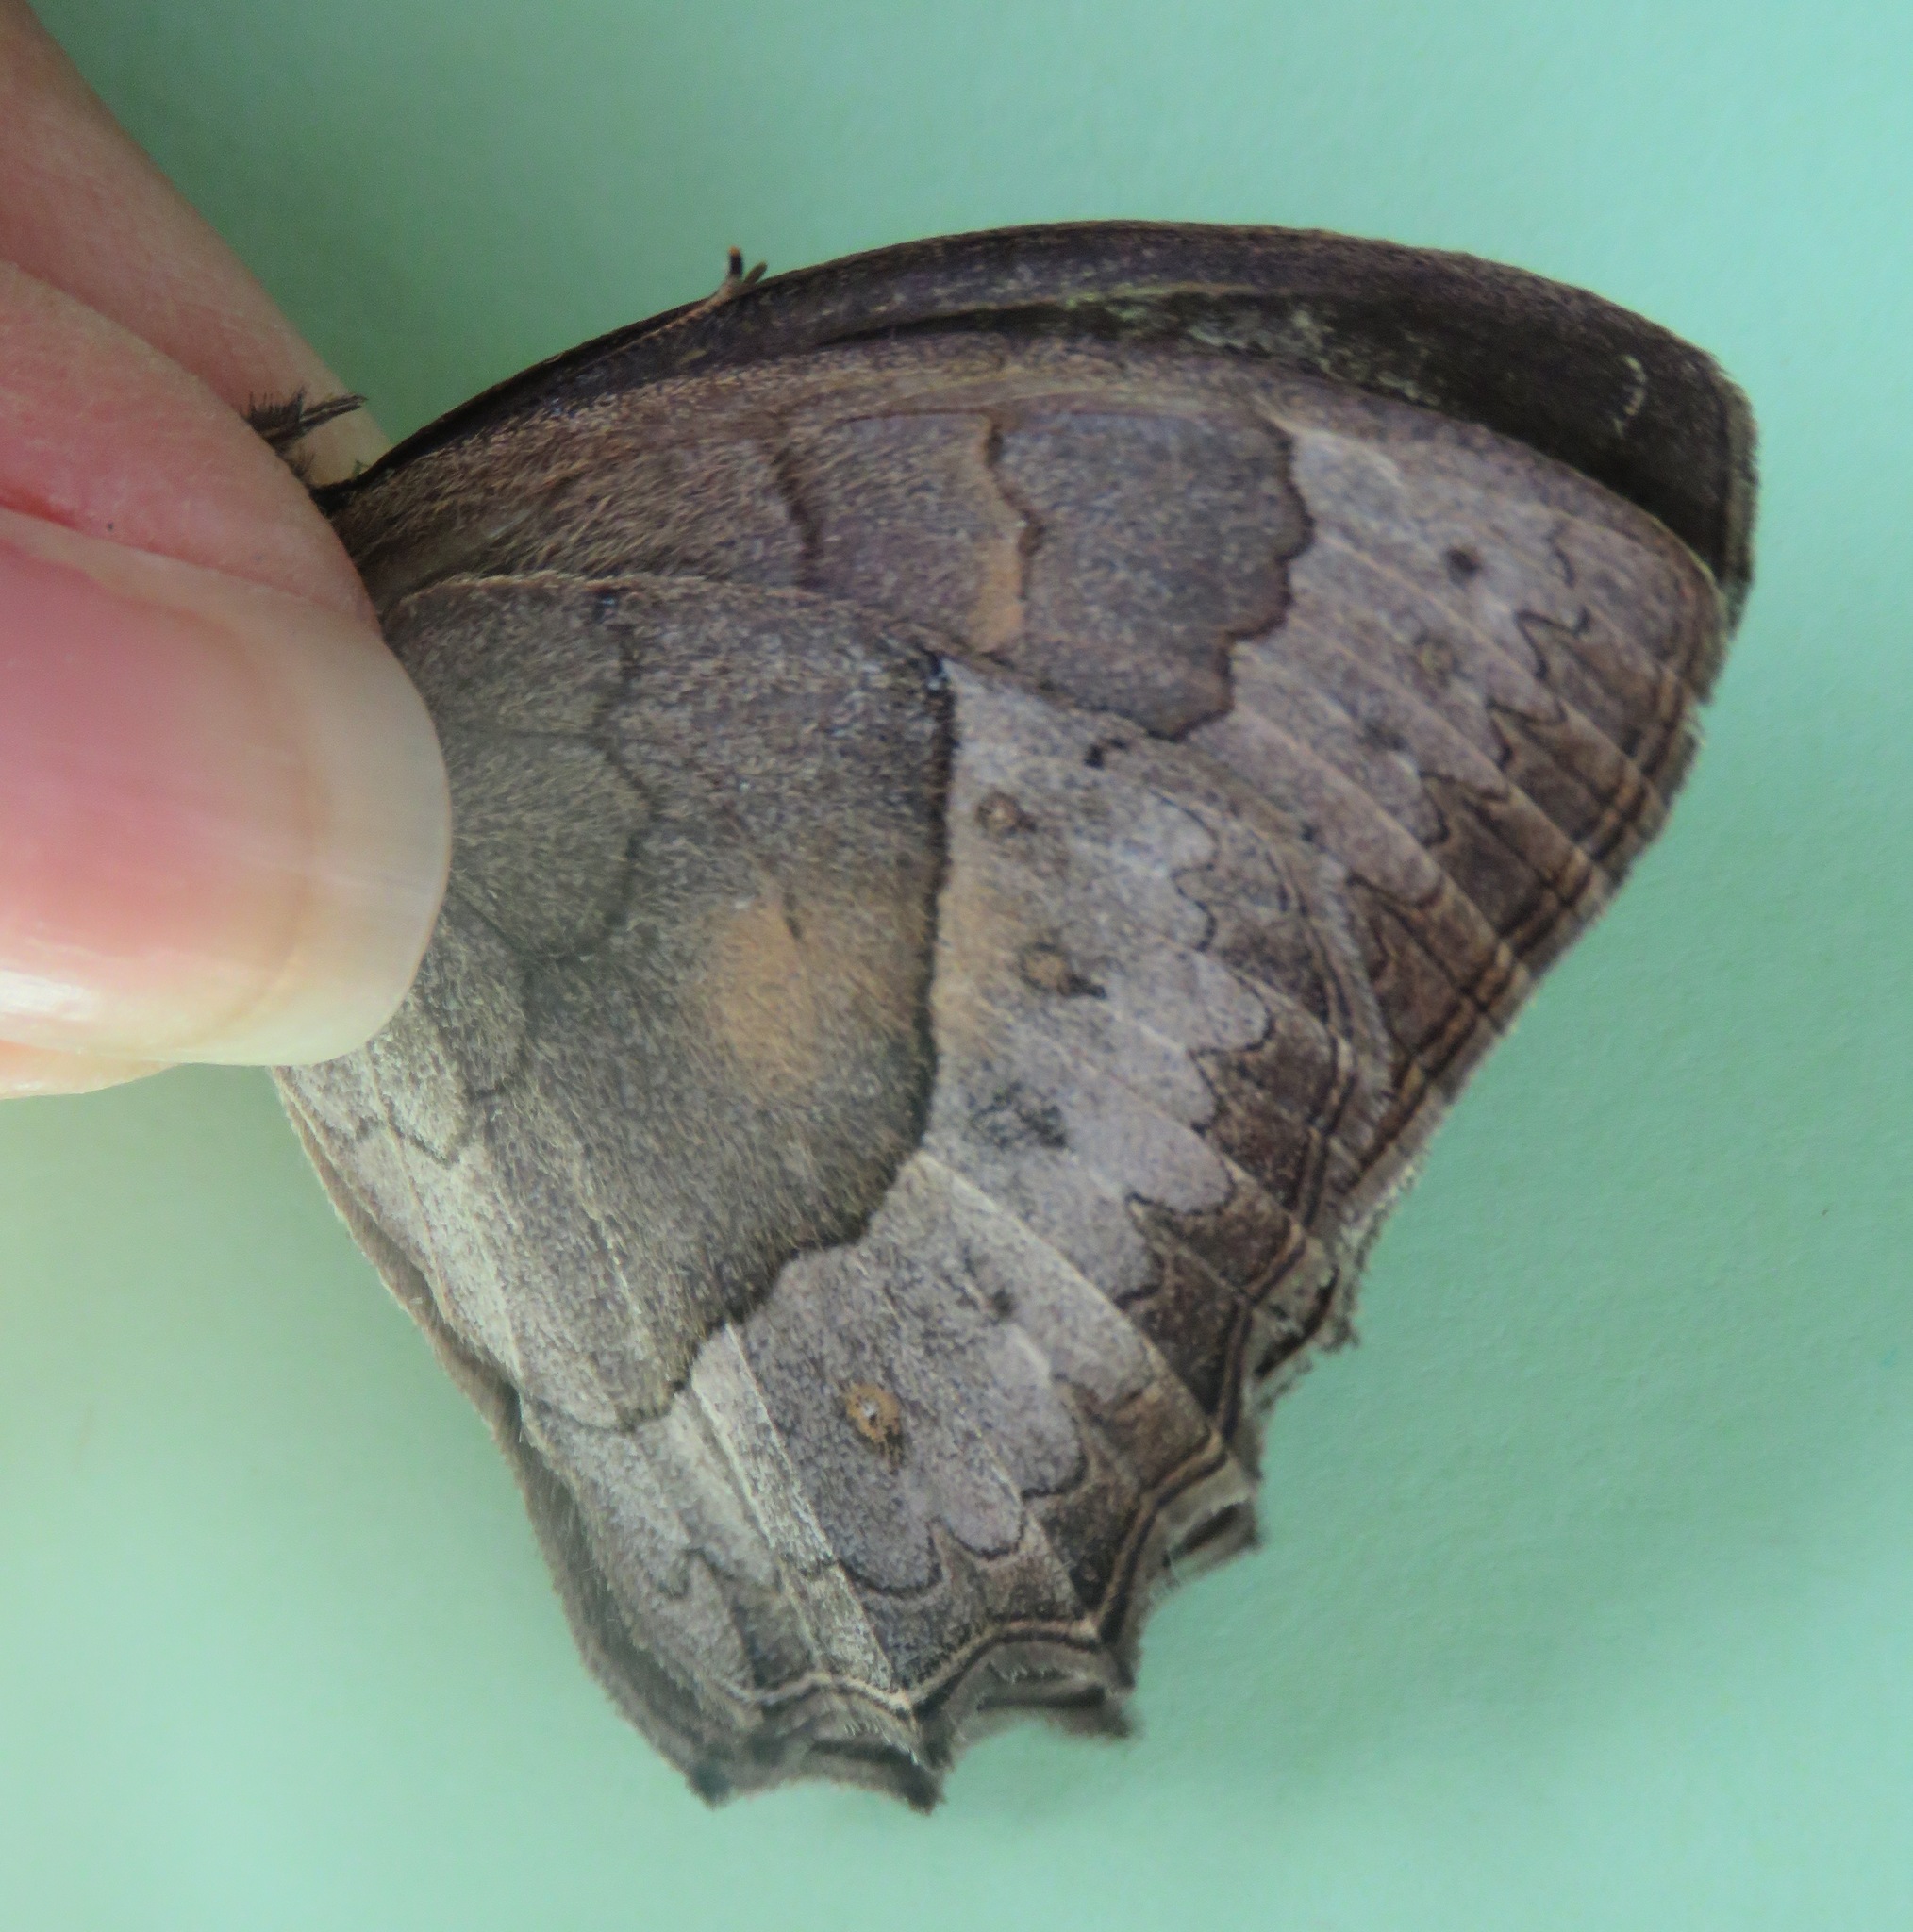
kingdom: Animalia
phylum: Arthropoda
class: Insecta
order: Lepidoptera
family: Nymphalidae
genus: Taygetina
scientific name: Taygetina kerea
